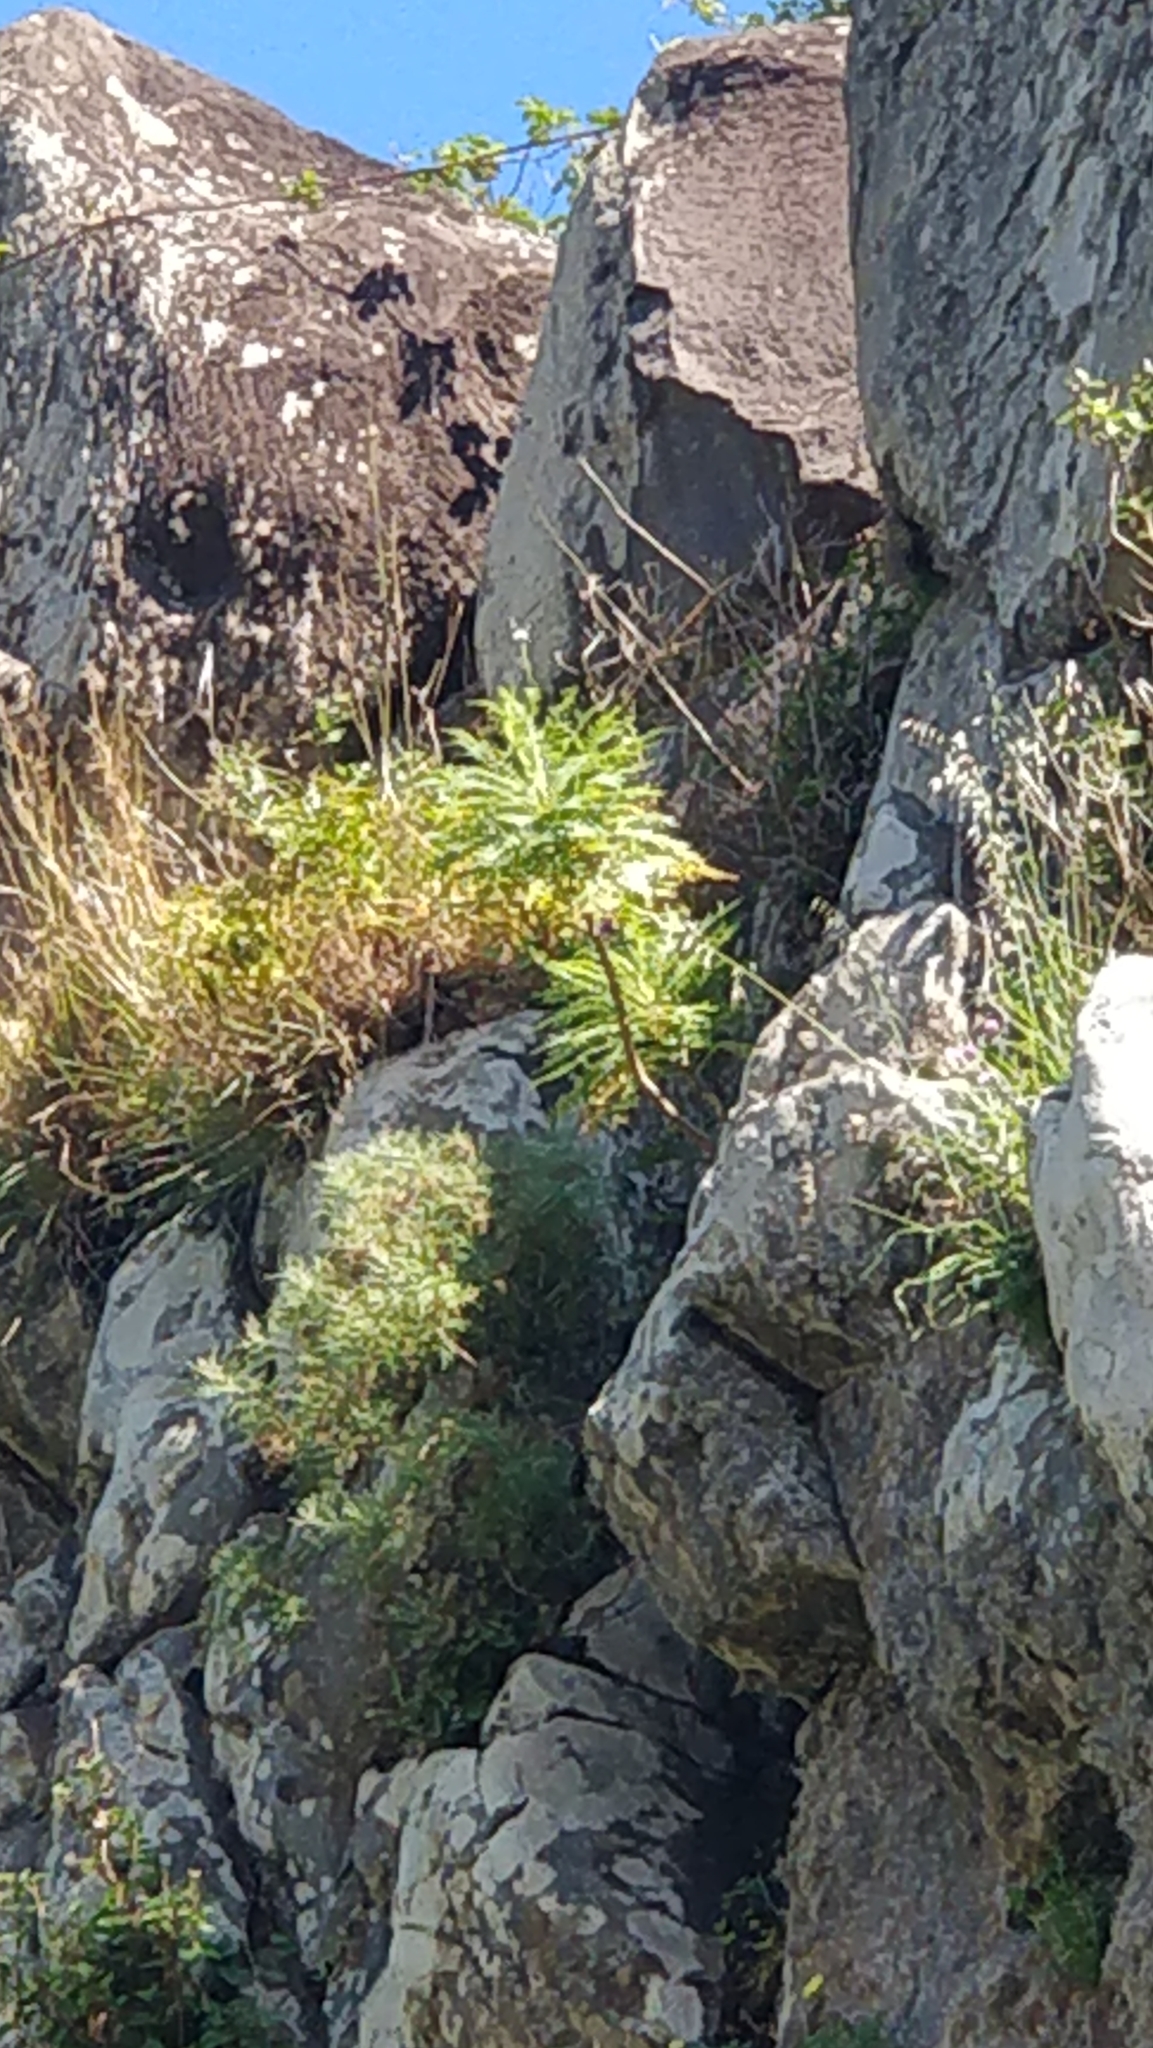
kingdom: Plantae
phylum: Tracheophyta
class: Magnoliopsida
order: Asterales
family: Asteraceae
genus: Sonchus
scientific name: Sonchus pinnatus
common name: Wing-leaved sow-thistle
